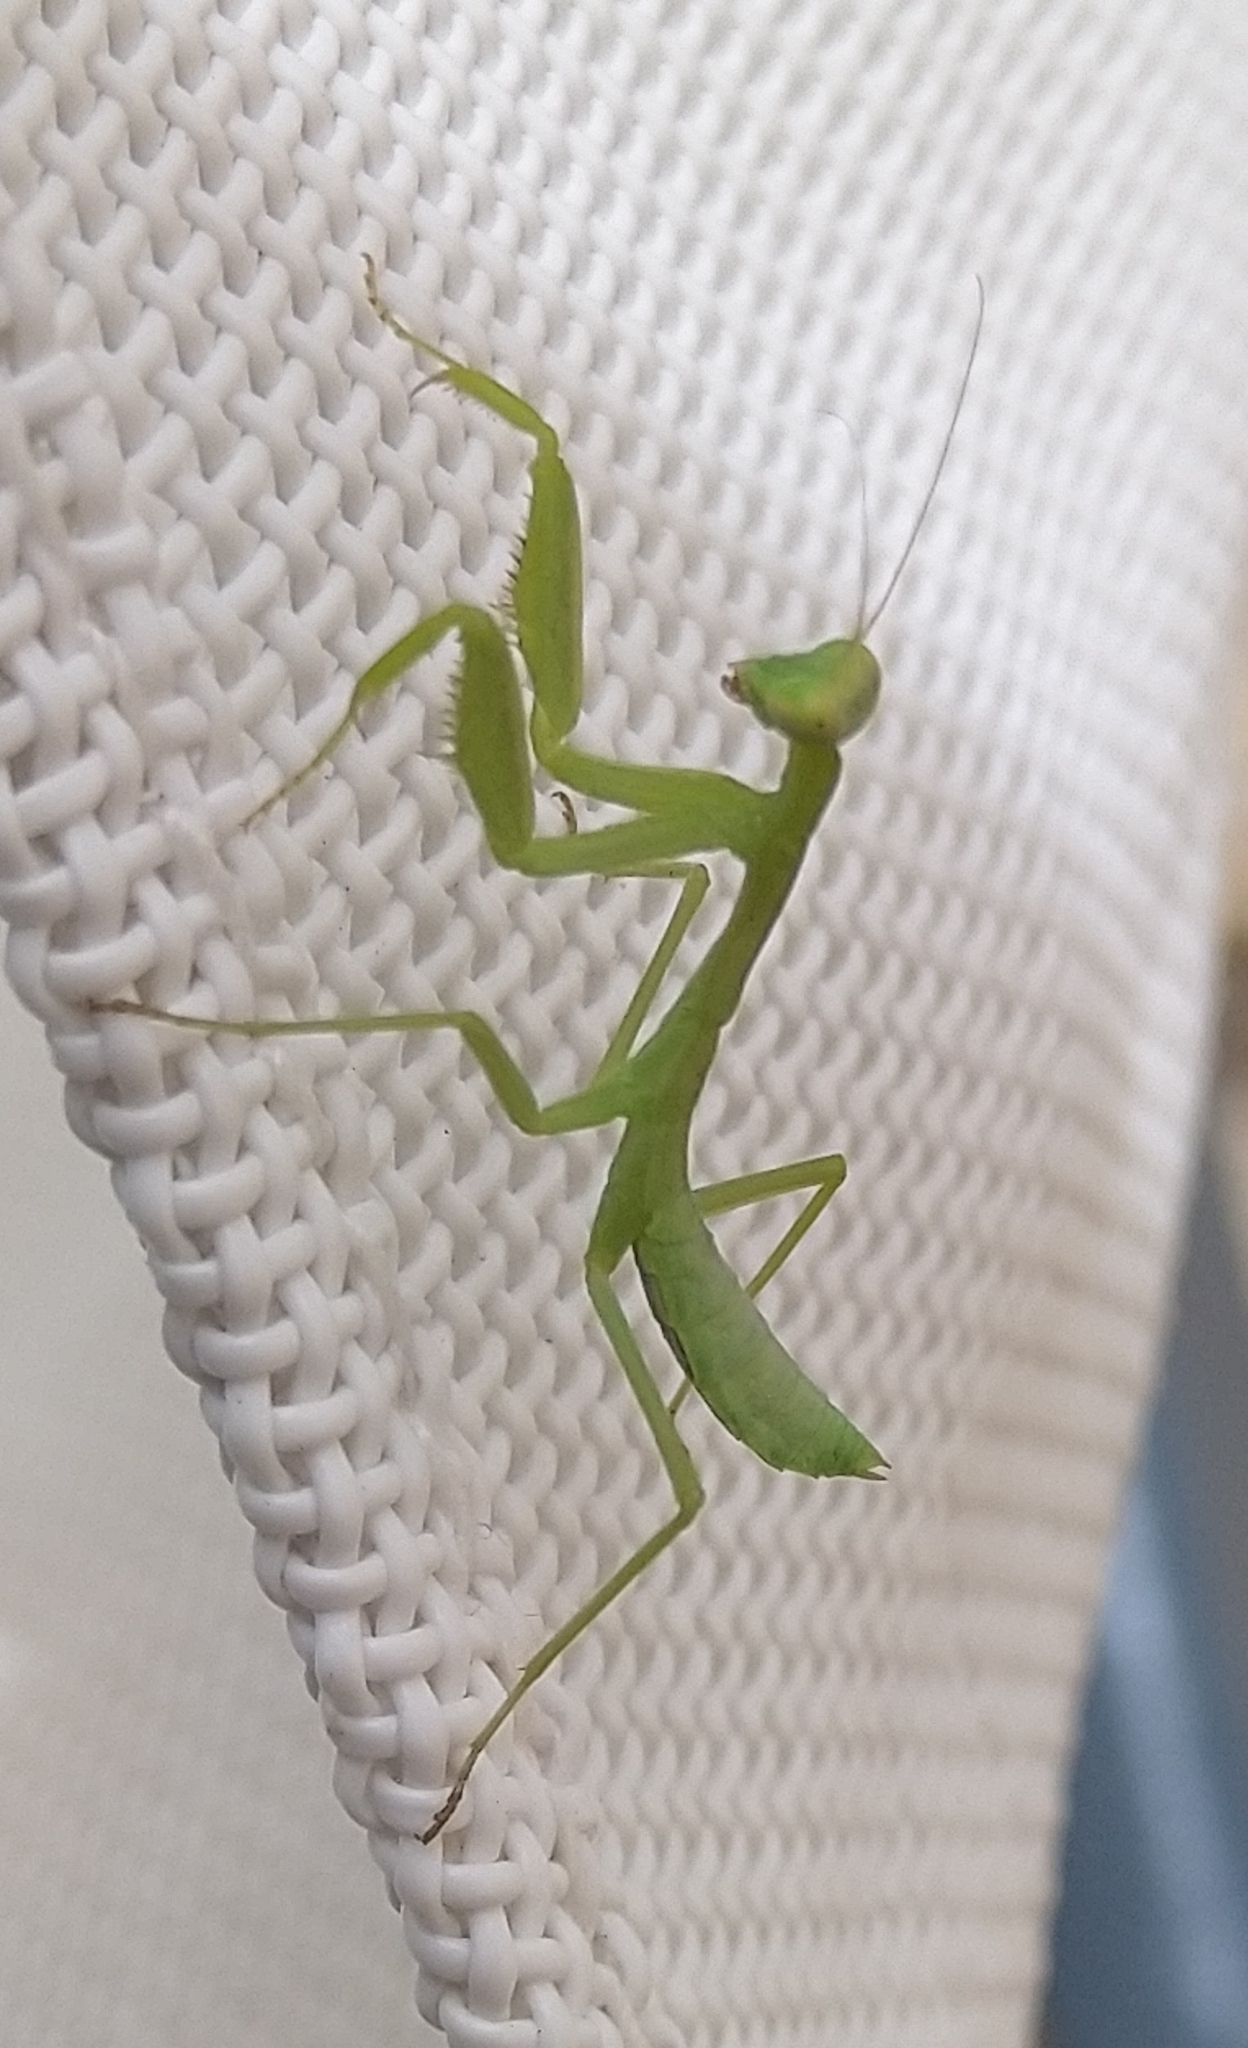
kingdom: Animalia
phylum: Arthropoda
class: Insecta
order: Mantodea
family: Mantidae
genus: Hierodula
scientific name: Hierodula transcaucasica
